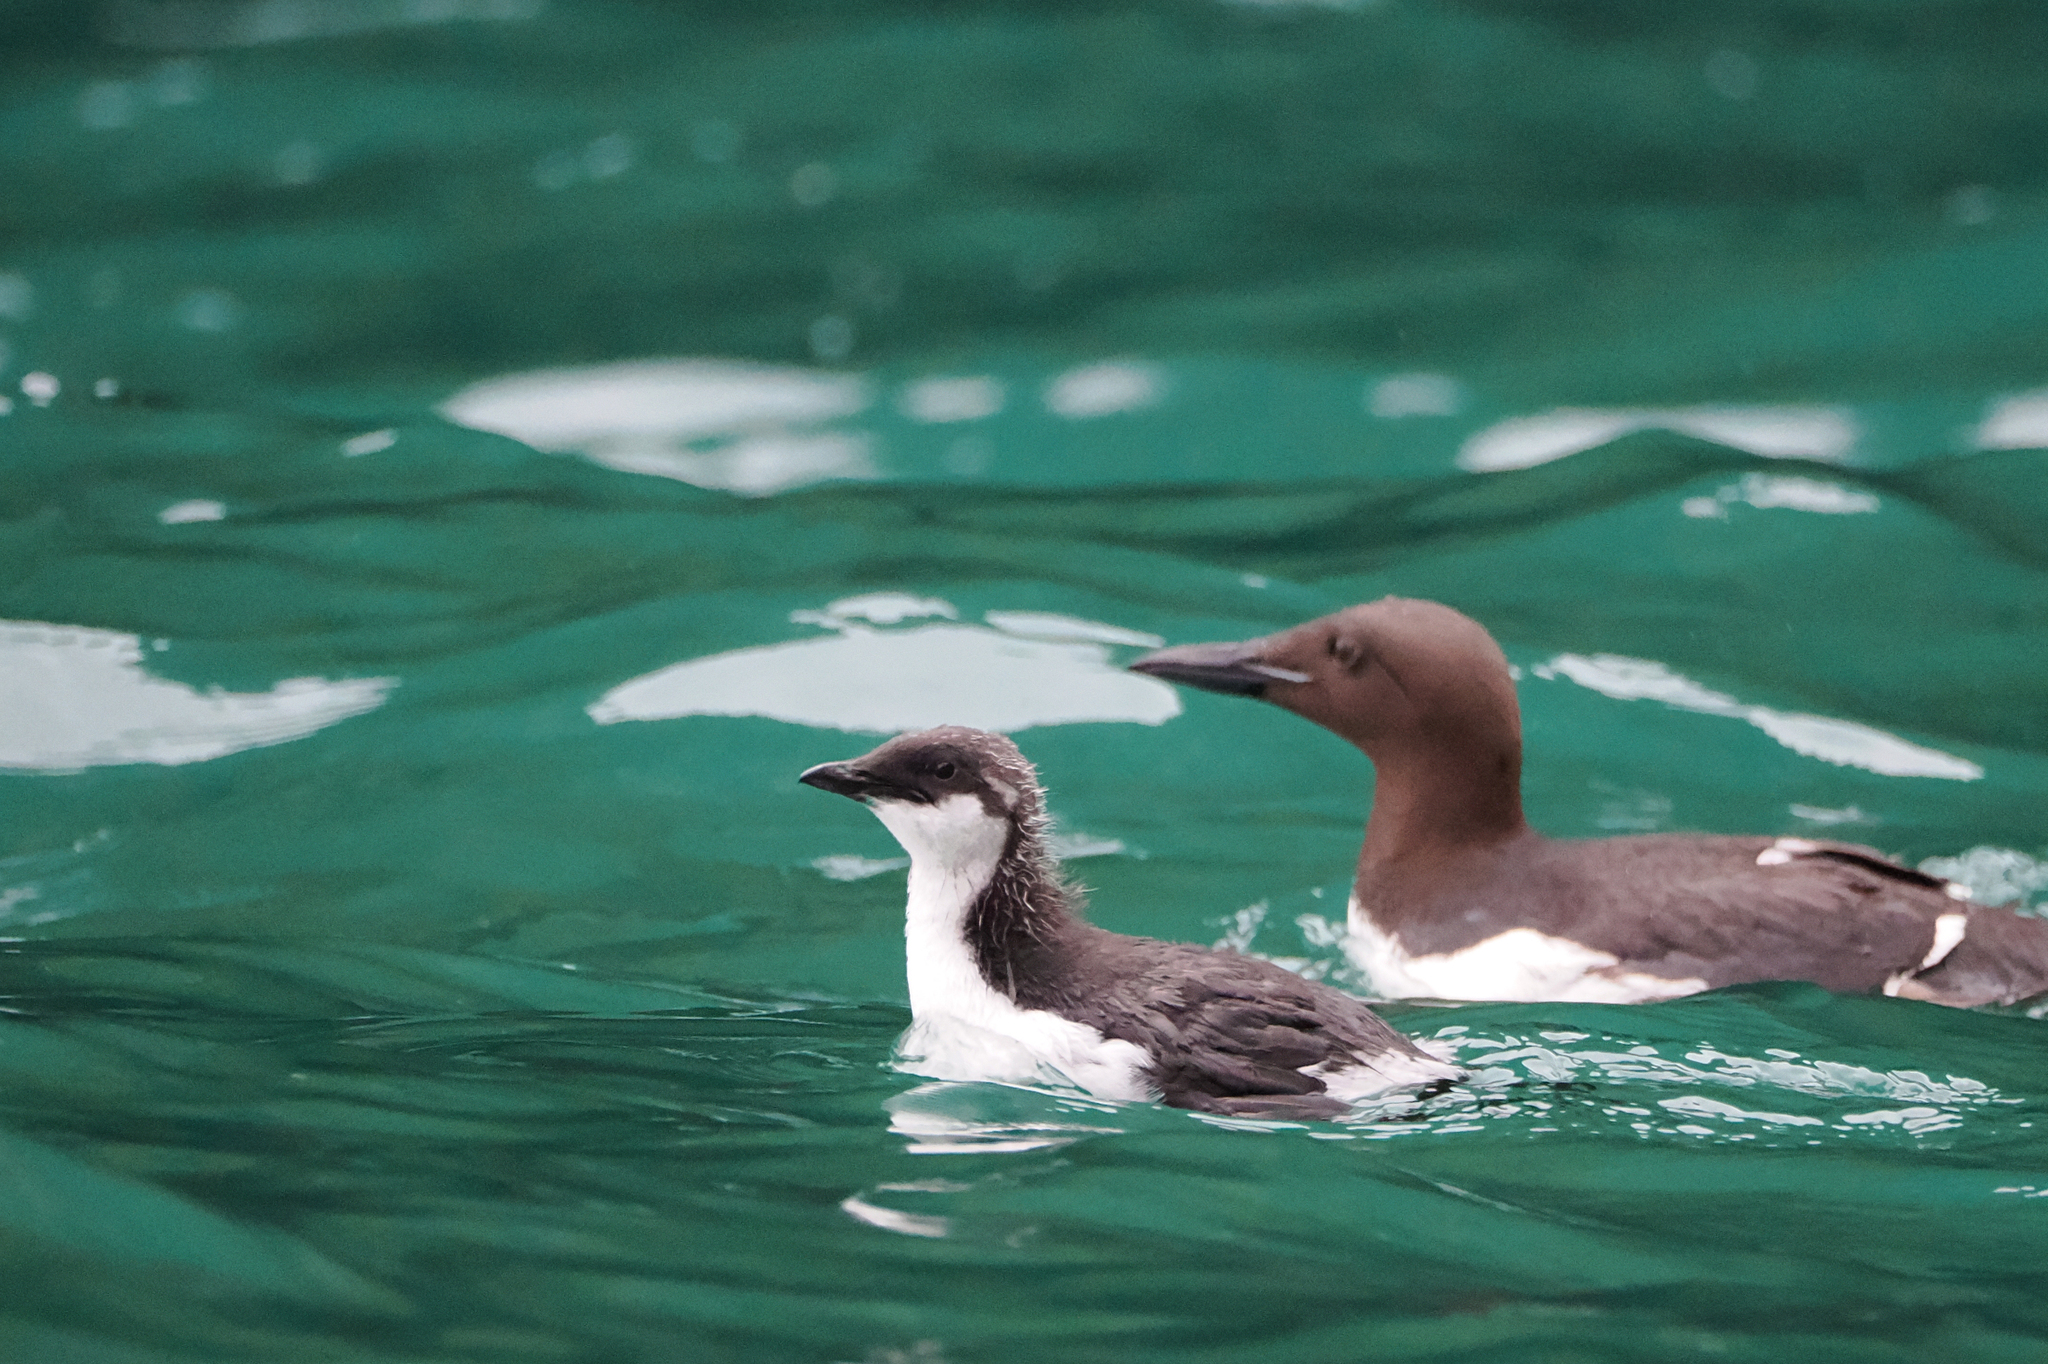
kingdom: Animalia
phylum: Chordata
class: Aves
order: Charadriiformes
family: Alcidae
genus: Uria
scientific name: Uria lomvia
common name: Thick-billed murre
